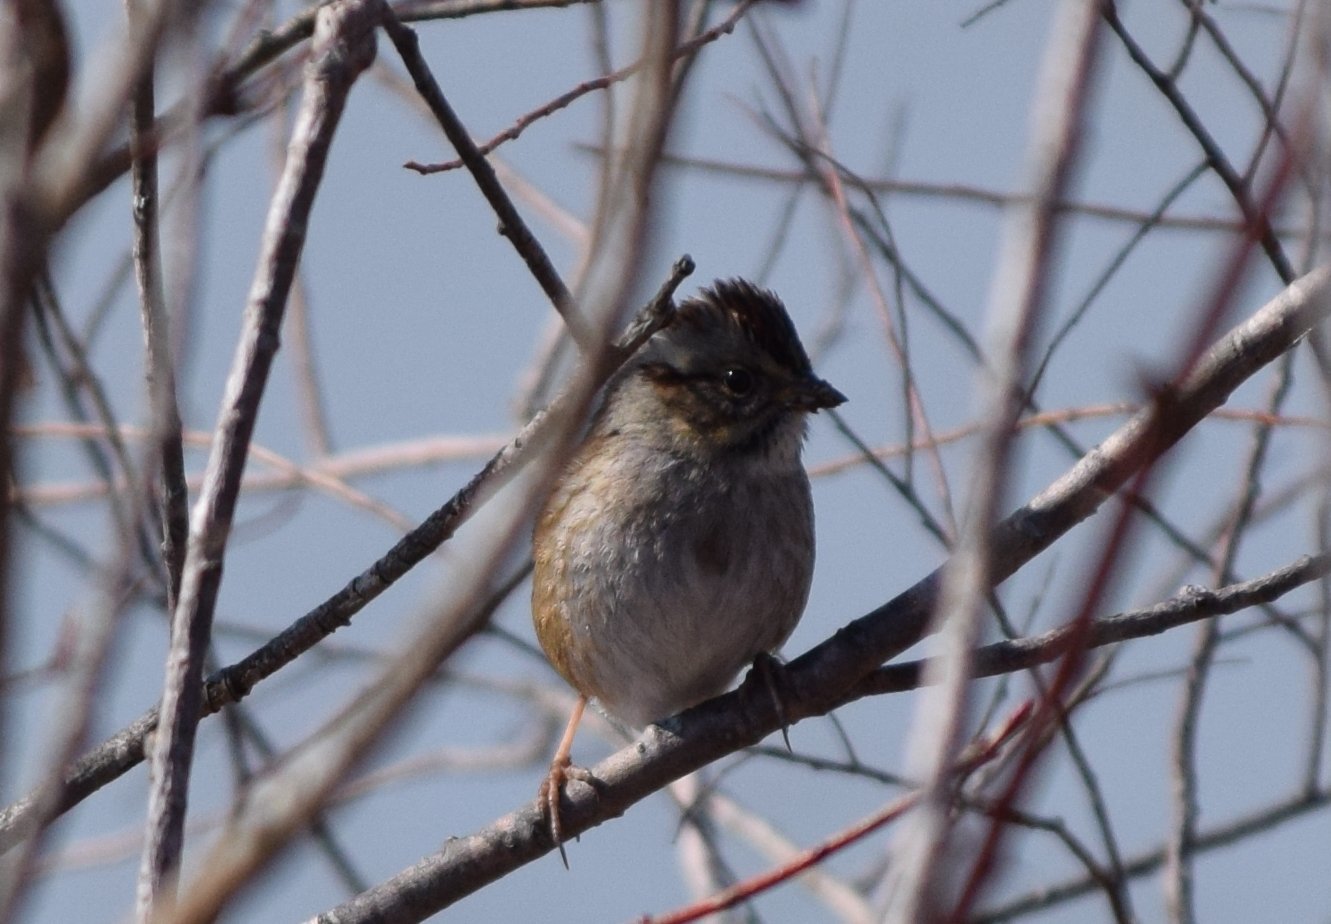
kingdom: Animalia
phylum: Chordata
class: Aves
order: Passeriformes
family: Passerellidae
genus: Melospiza
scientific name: Melospiza georgiana
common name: Swamp sparrow
